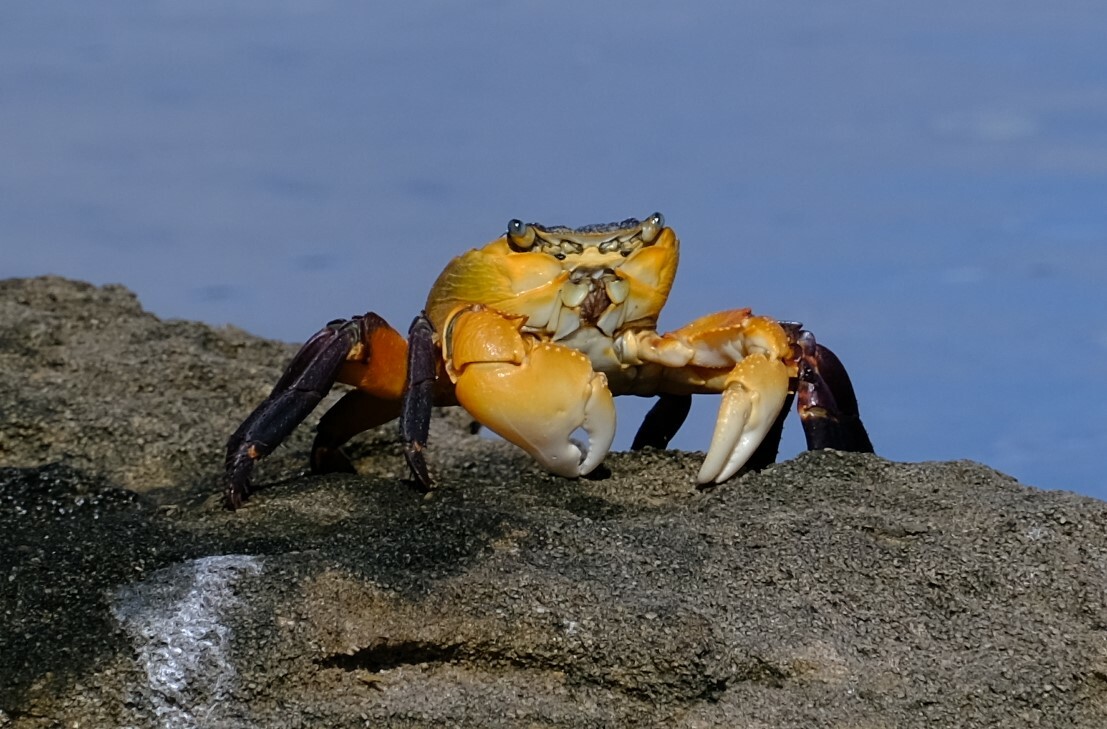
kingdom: Animalia
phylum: Arthropoda
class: Malacostraca
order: Decapoda
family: Grapsidae
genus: Leptograpsus
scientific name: Leptograpsus variegatus
